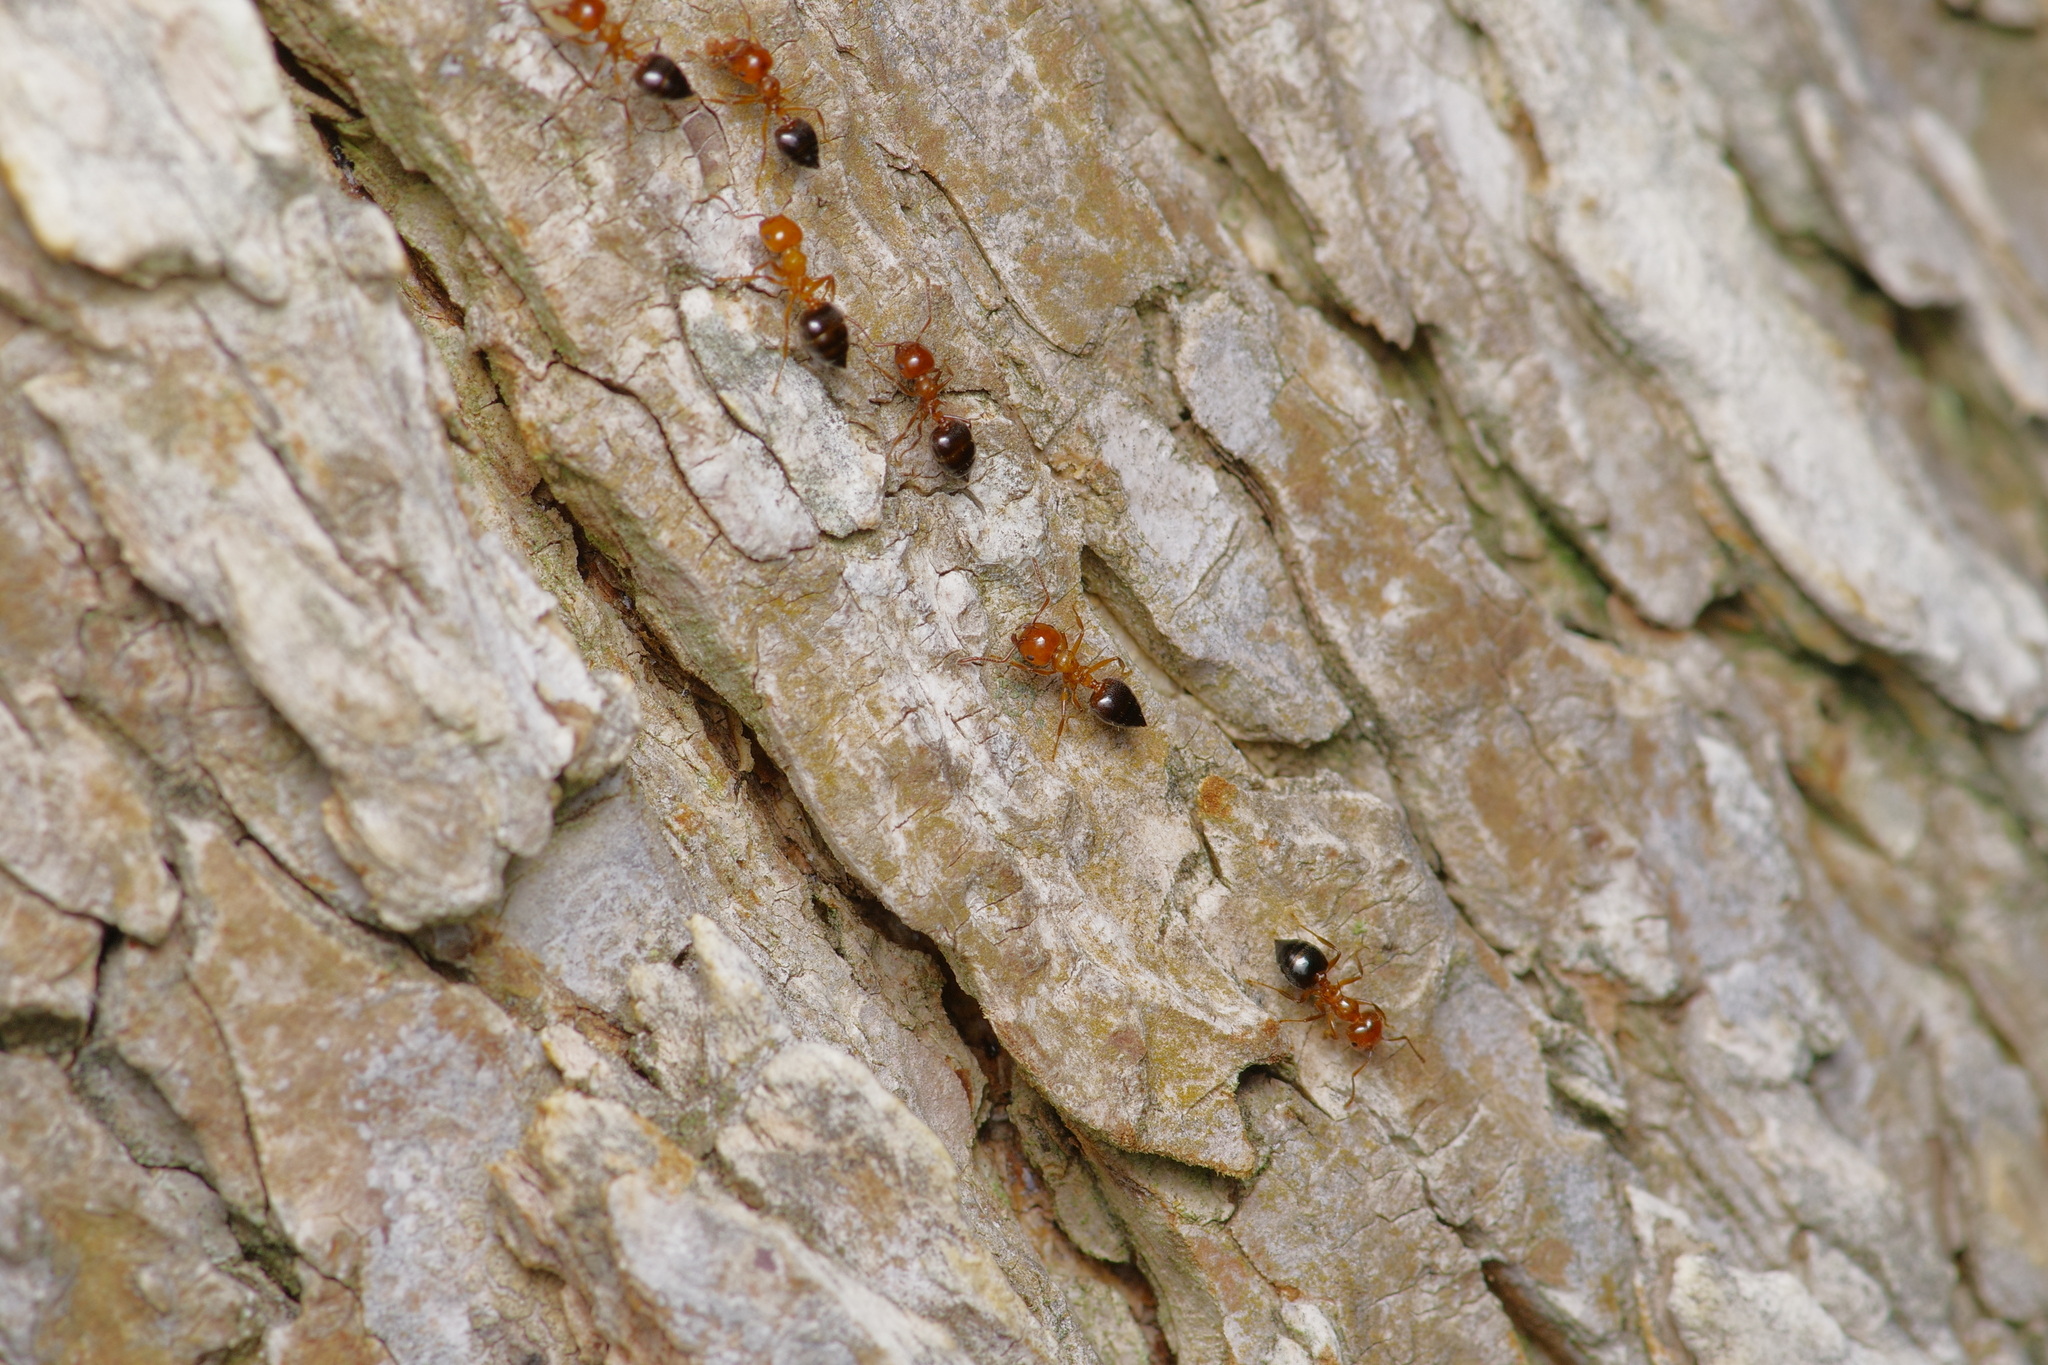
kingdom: Animalia
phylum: Arthropoda
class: Insecta
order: Hymenoptera
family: Formicidae
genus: Crematogaster
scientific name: Crematogaster laeviuscula
